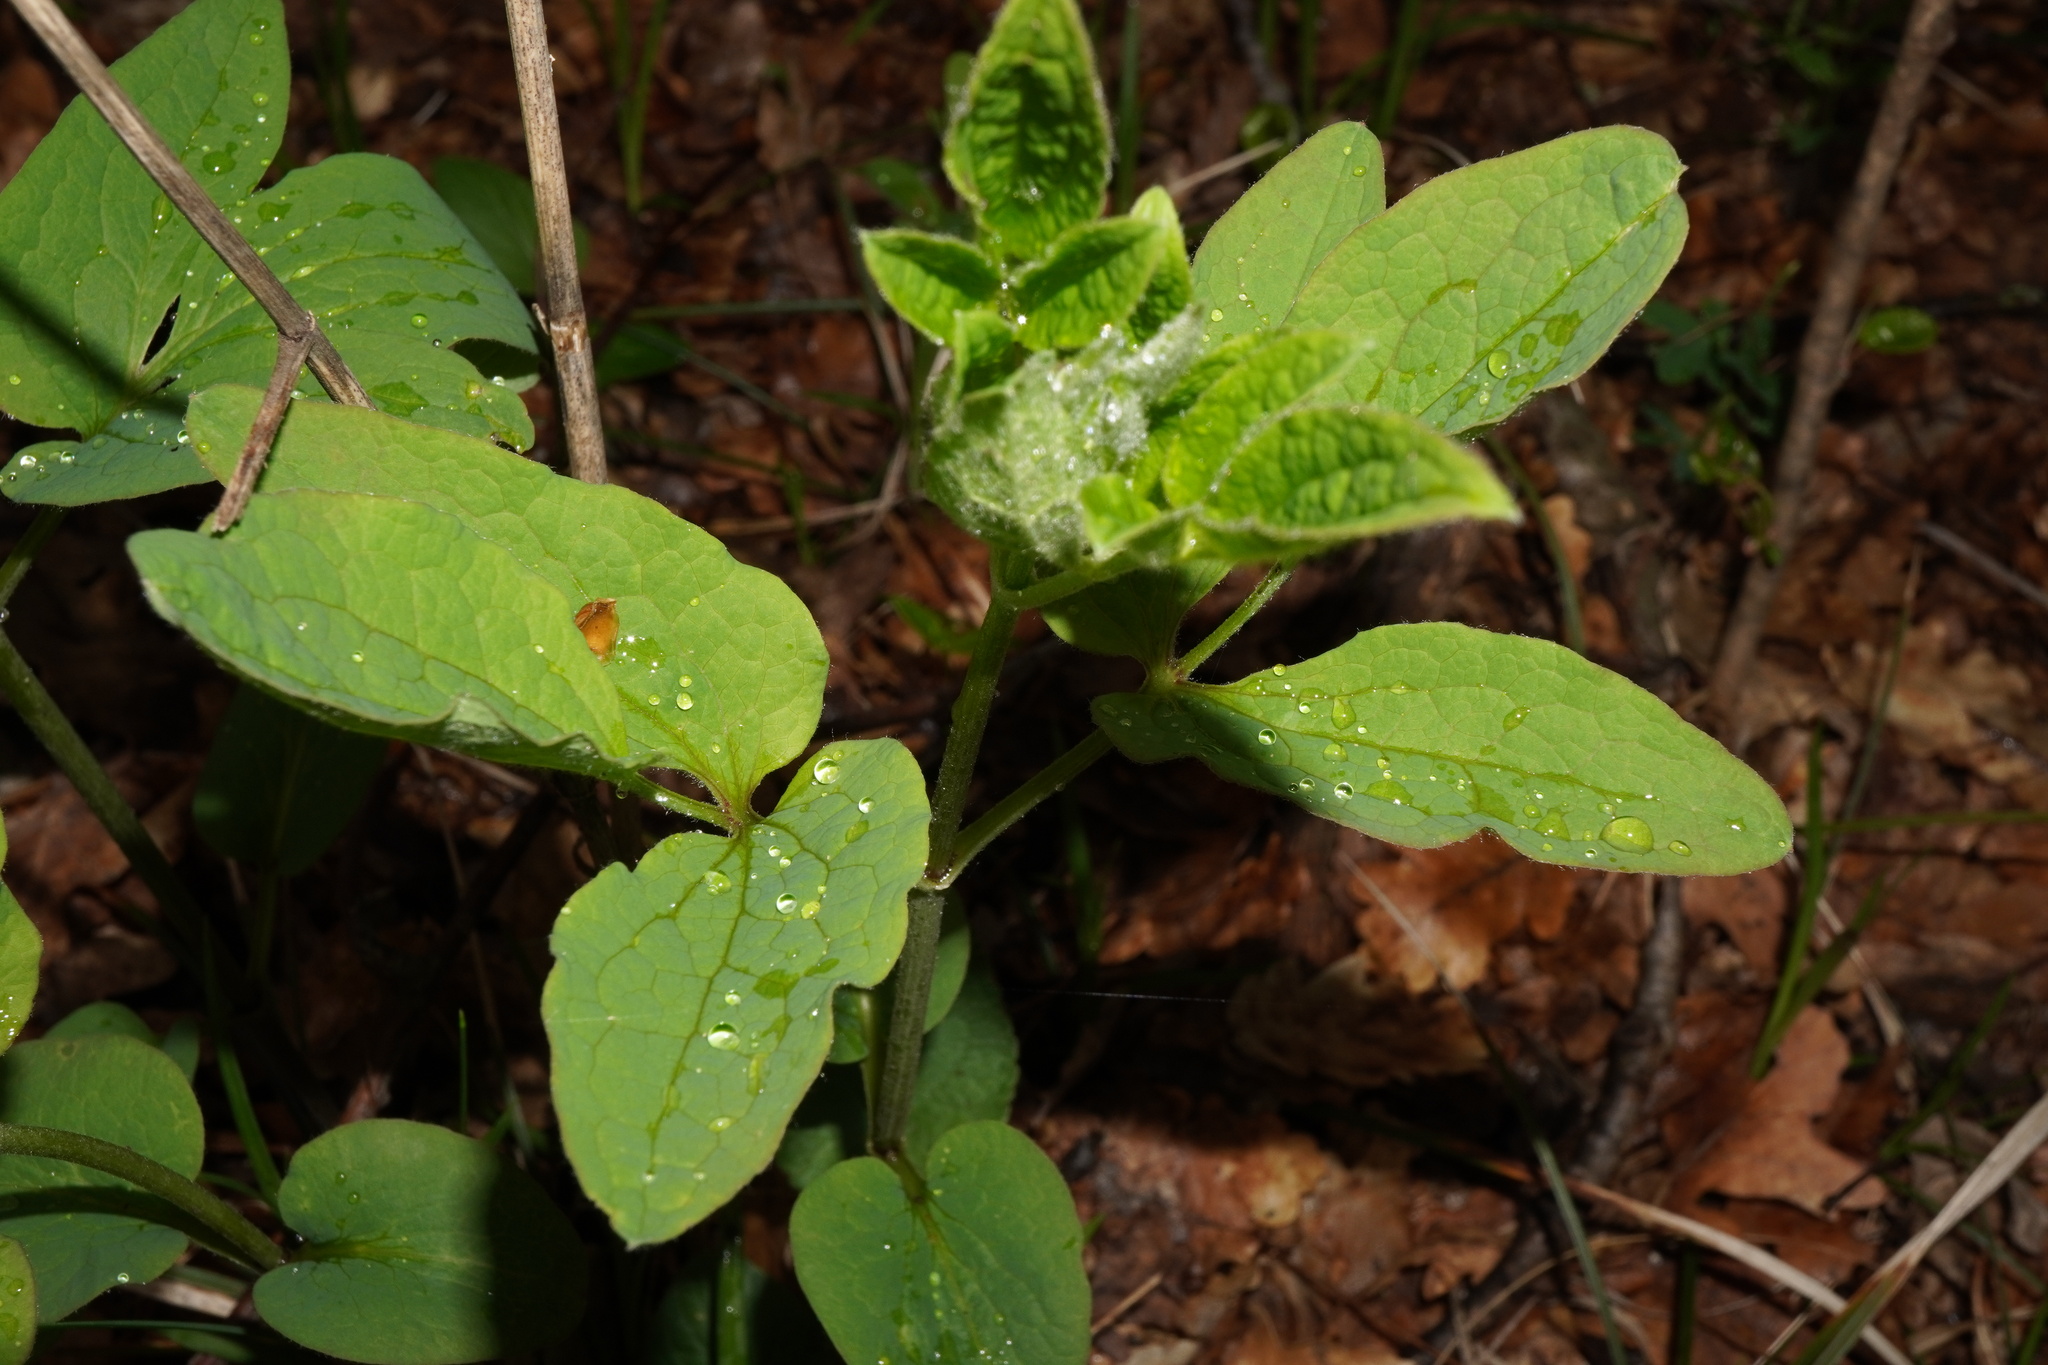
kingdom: Plantae
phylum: Tracheophyta
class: Magnoliopsida
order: Ranunculales
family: Ranunculaceae
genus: Clematis
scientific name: Clematis recta
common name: Ground clematis
